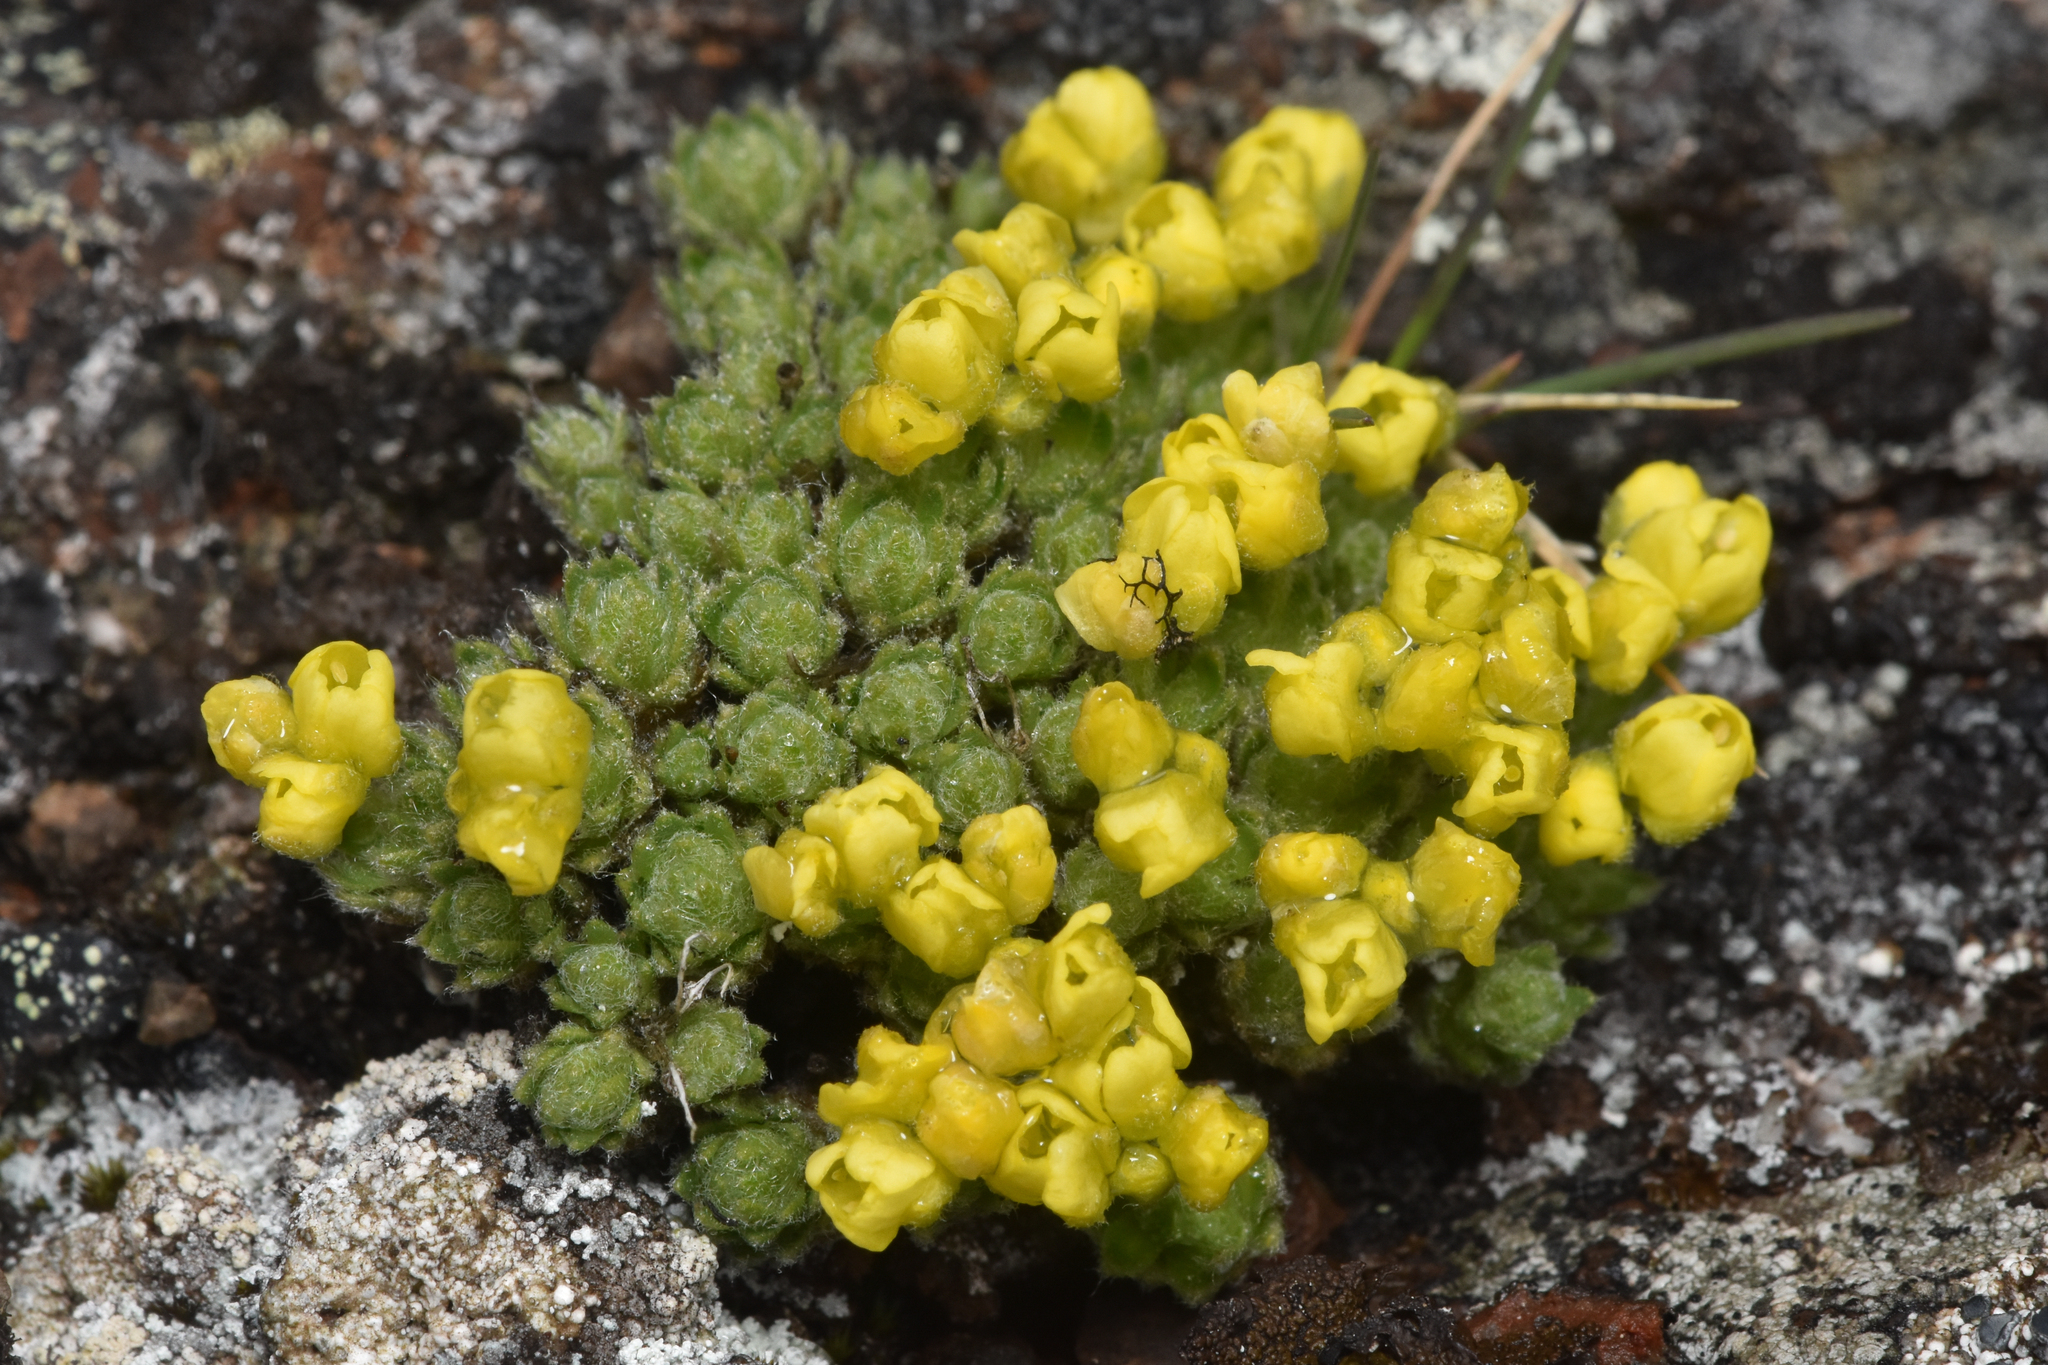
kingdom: Plantae
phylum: Tracheophyta
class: Magnoliopsida
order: Brassicales
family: Brassicaceae
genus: Draba
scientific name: Draba oligosperma
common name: Few-seed draba
